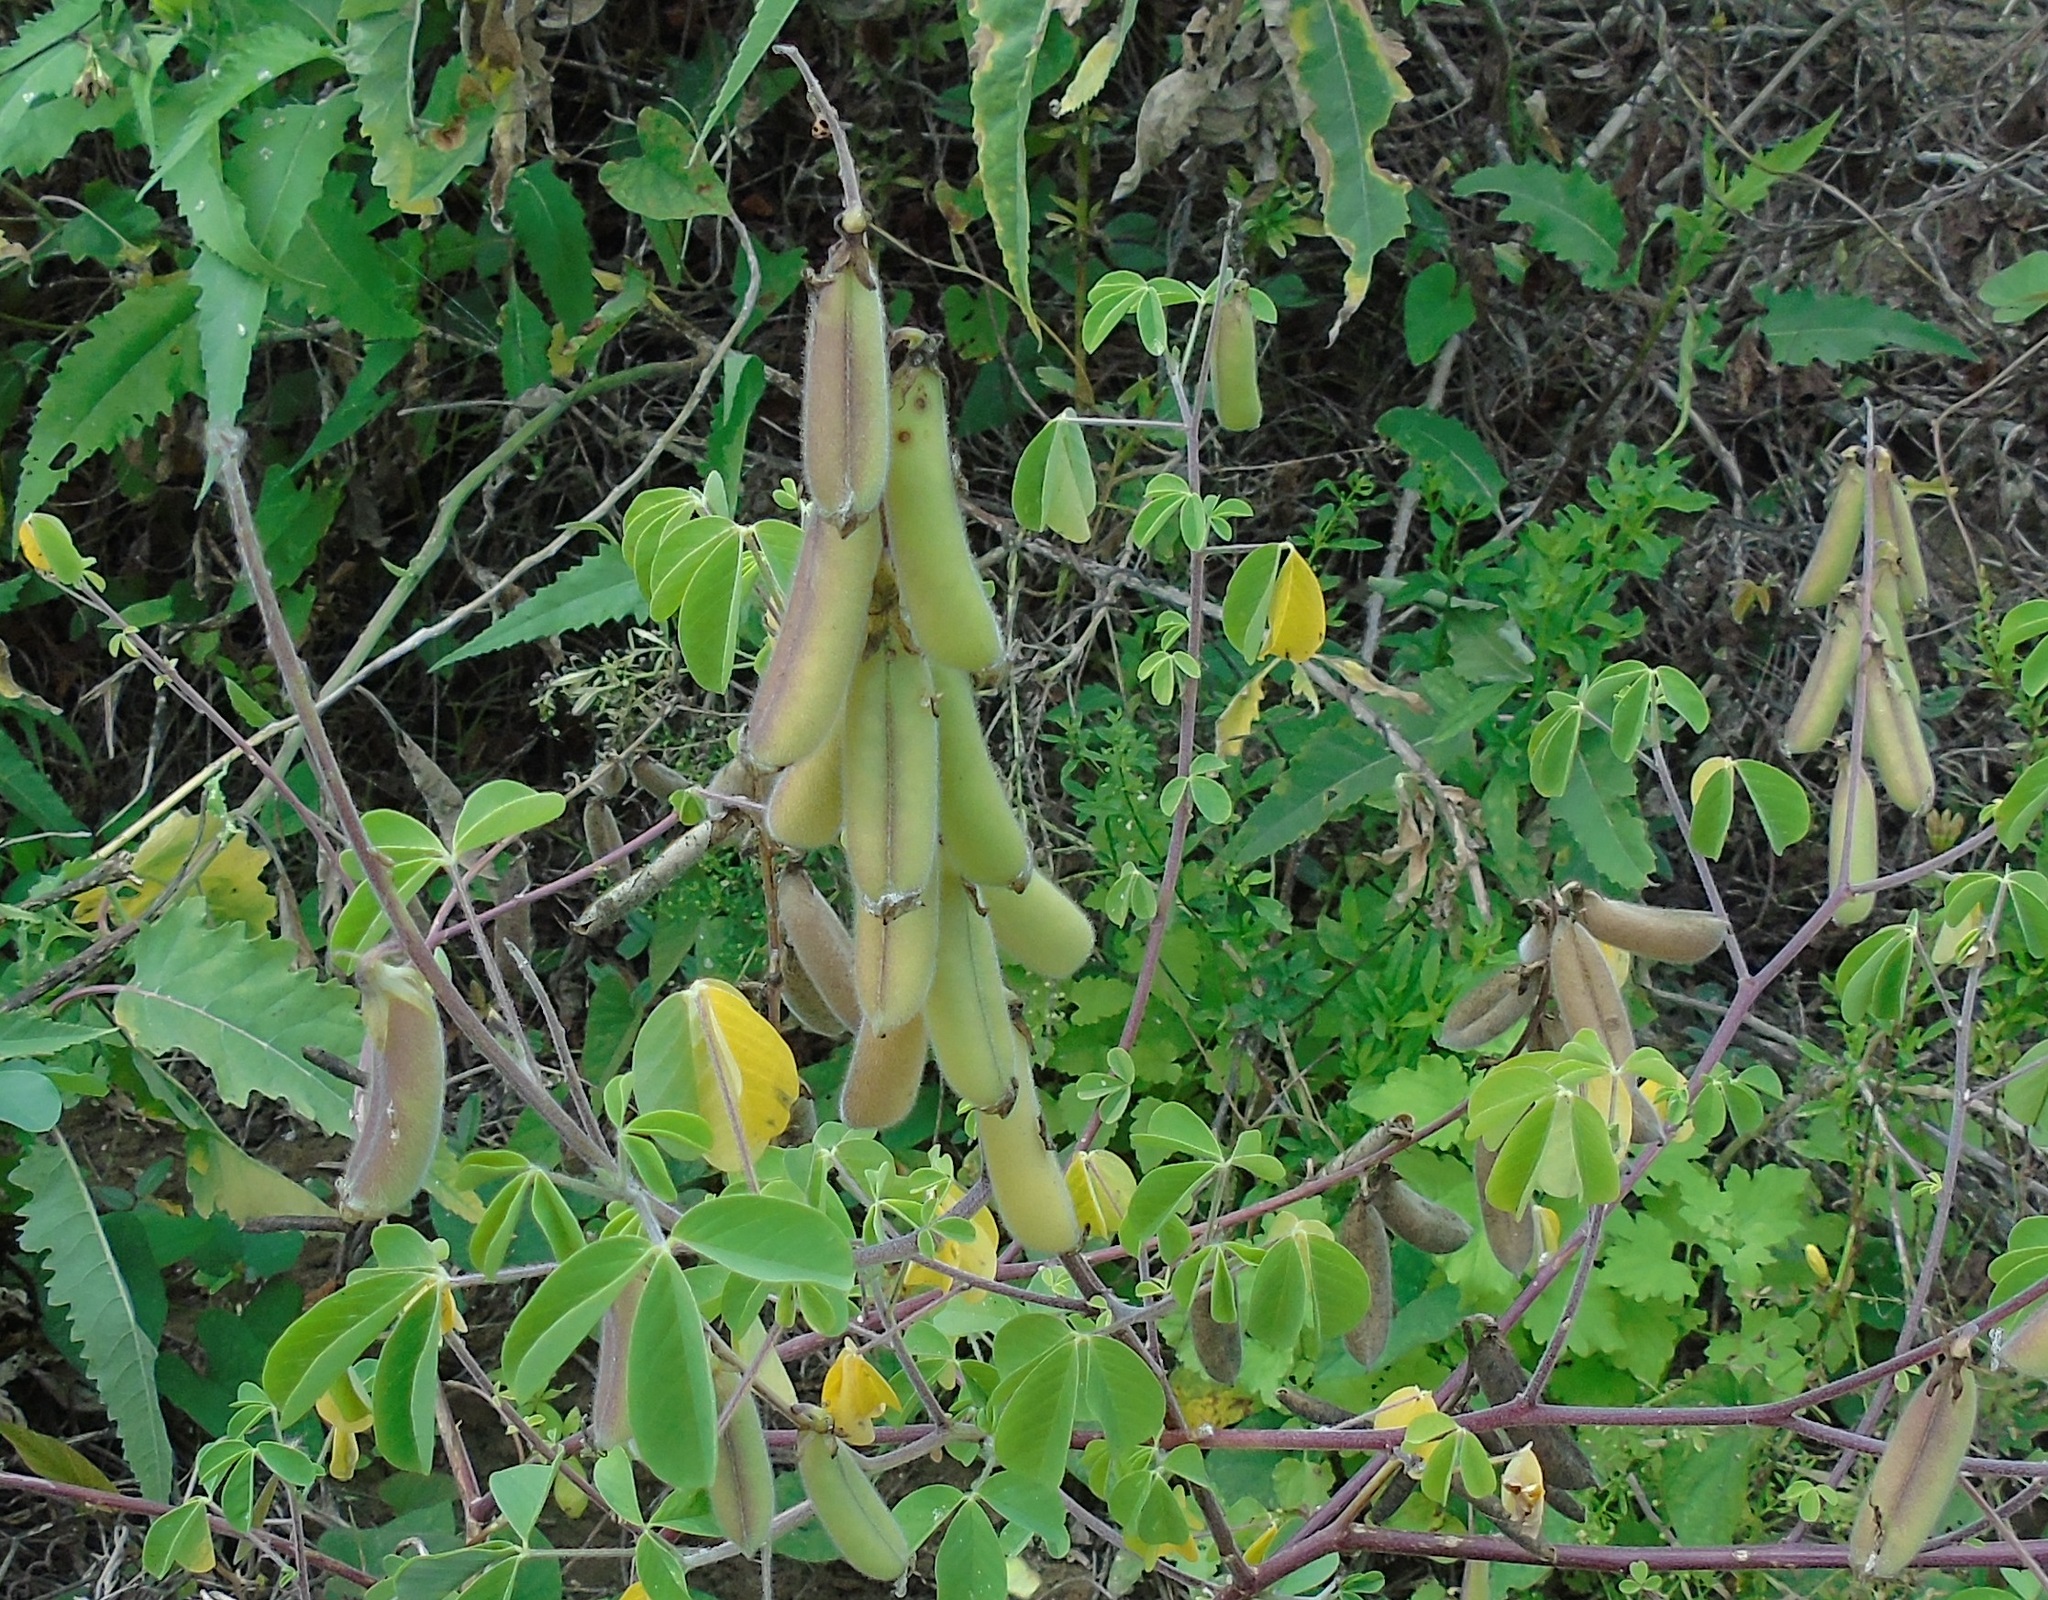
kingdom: Plantae
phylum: Tracheophyta
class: Magnoliopsida
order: Fabales
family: Fabaceae
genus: Crotalaria
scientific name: Crotalaria
